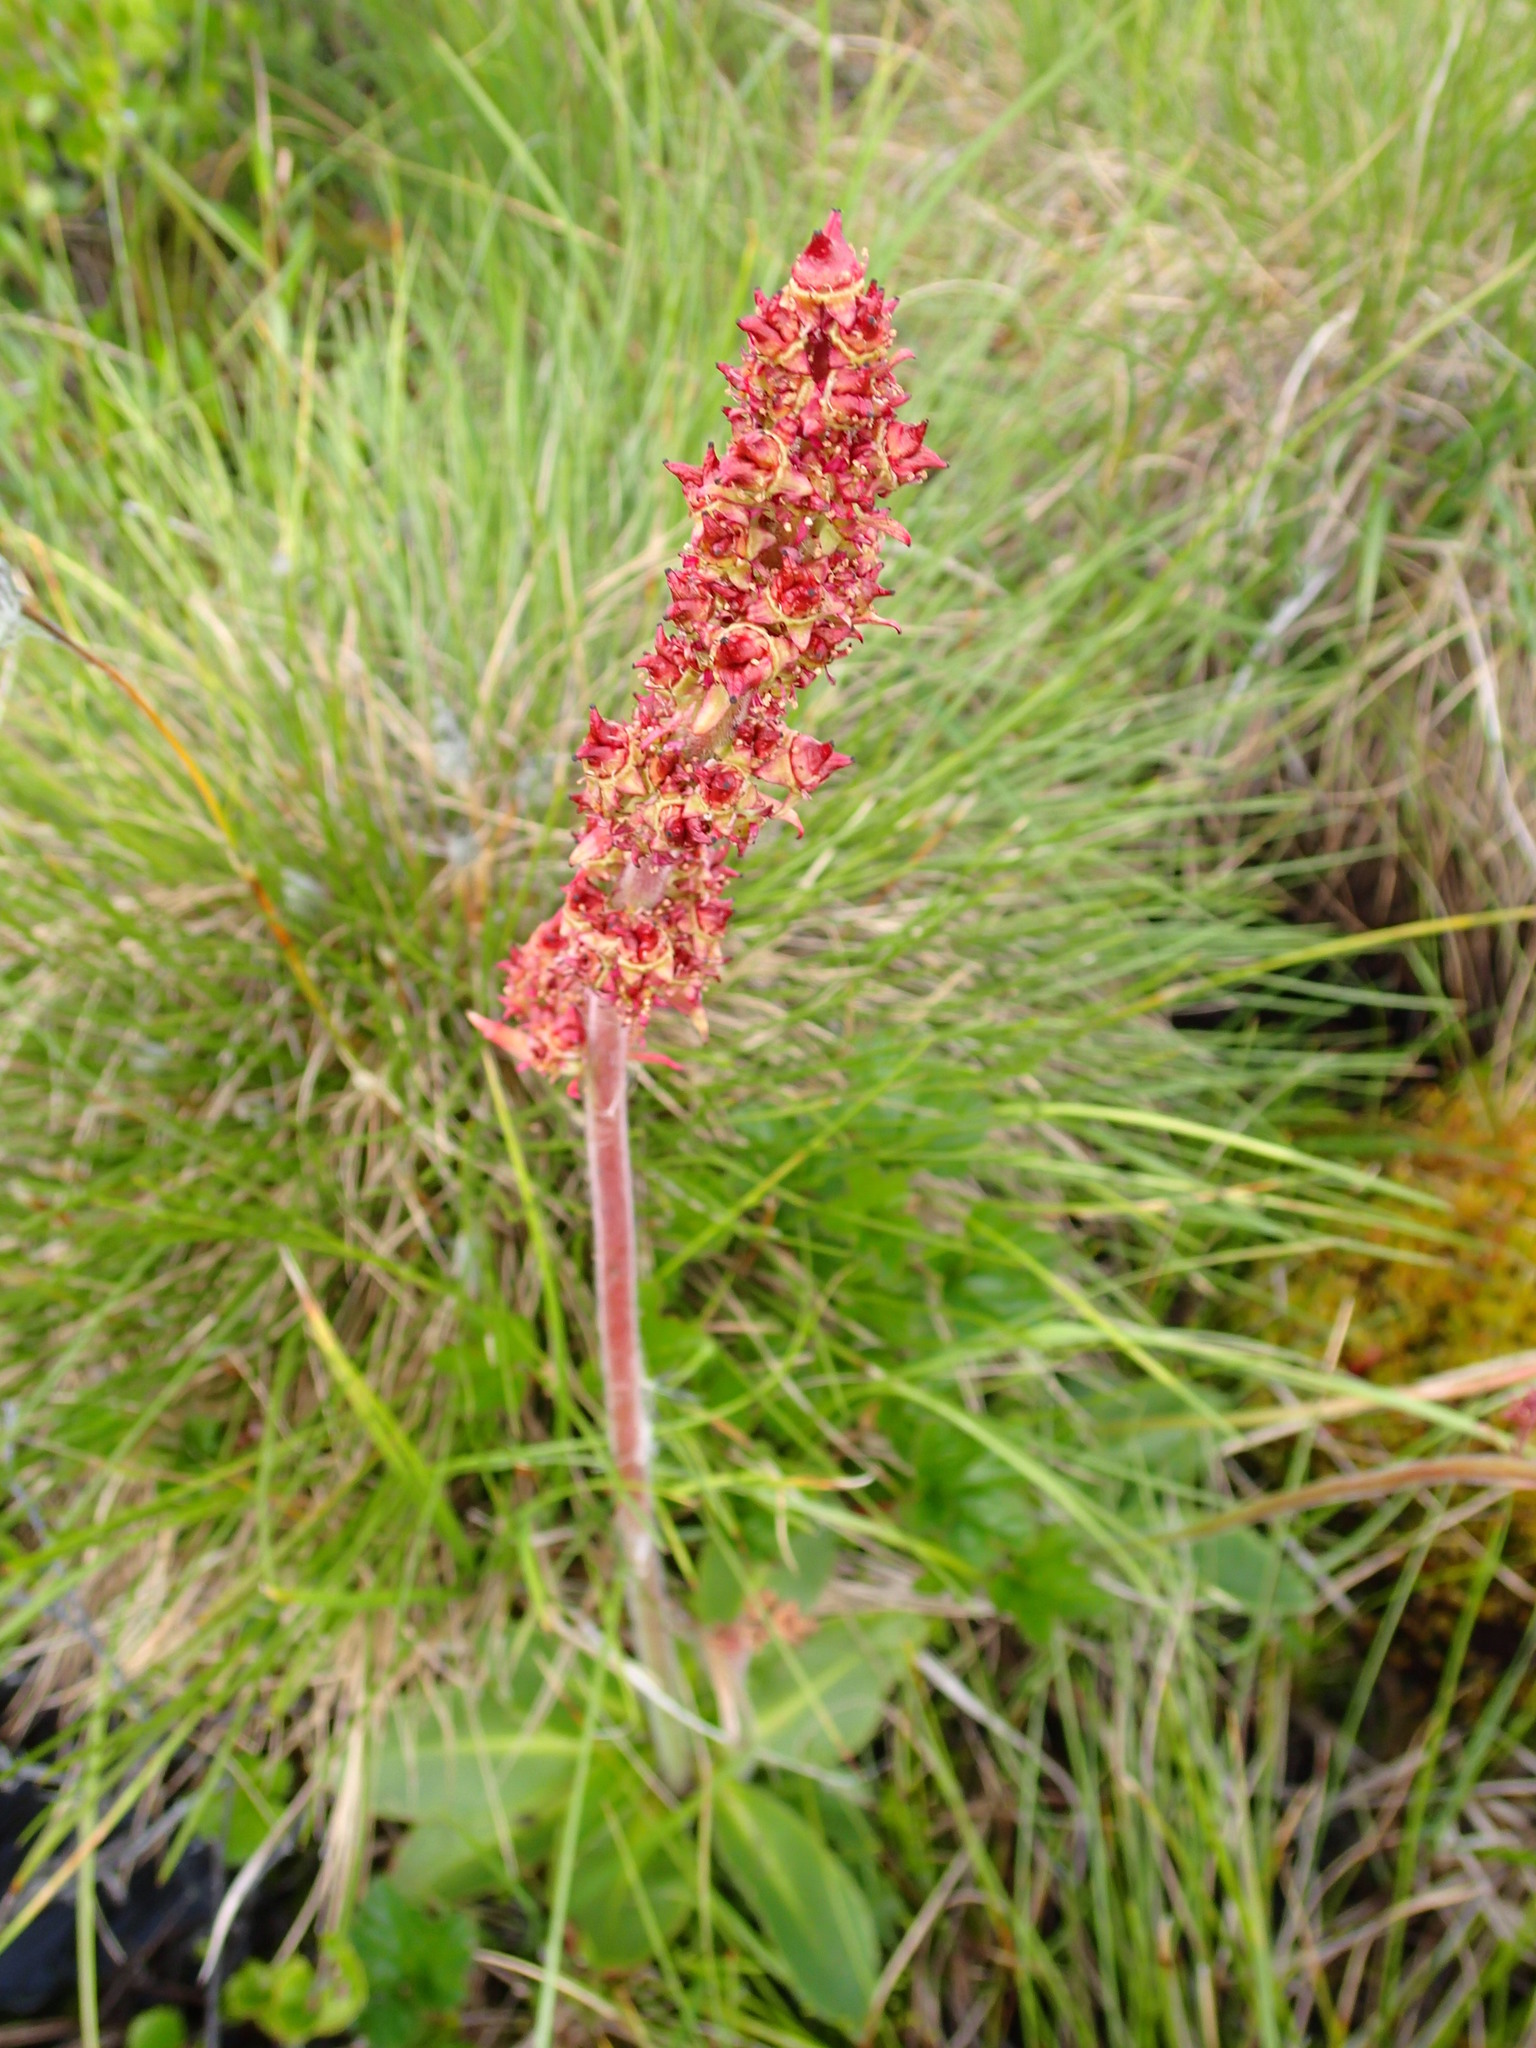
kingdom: Plantae
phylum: Tracheophyta
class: Magnoliopsida
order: Saxifragales
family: Saxifragaceae
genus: Micranthes
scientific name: Micranthes hieraciifolia
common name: Hawkweed-leaved saxifrage
